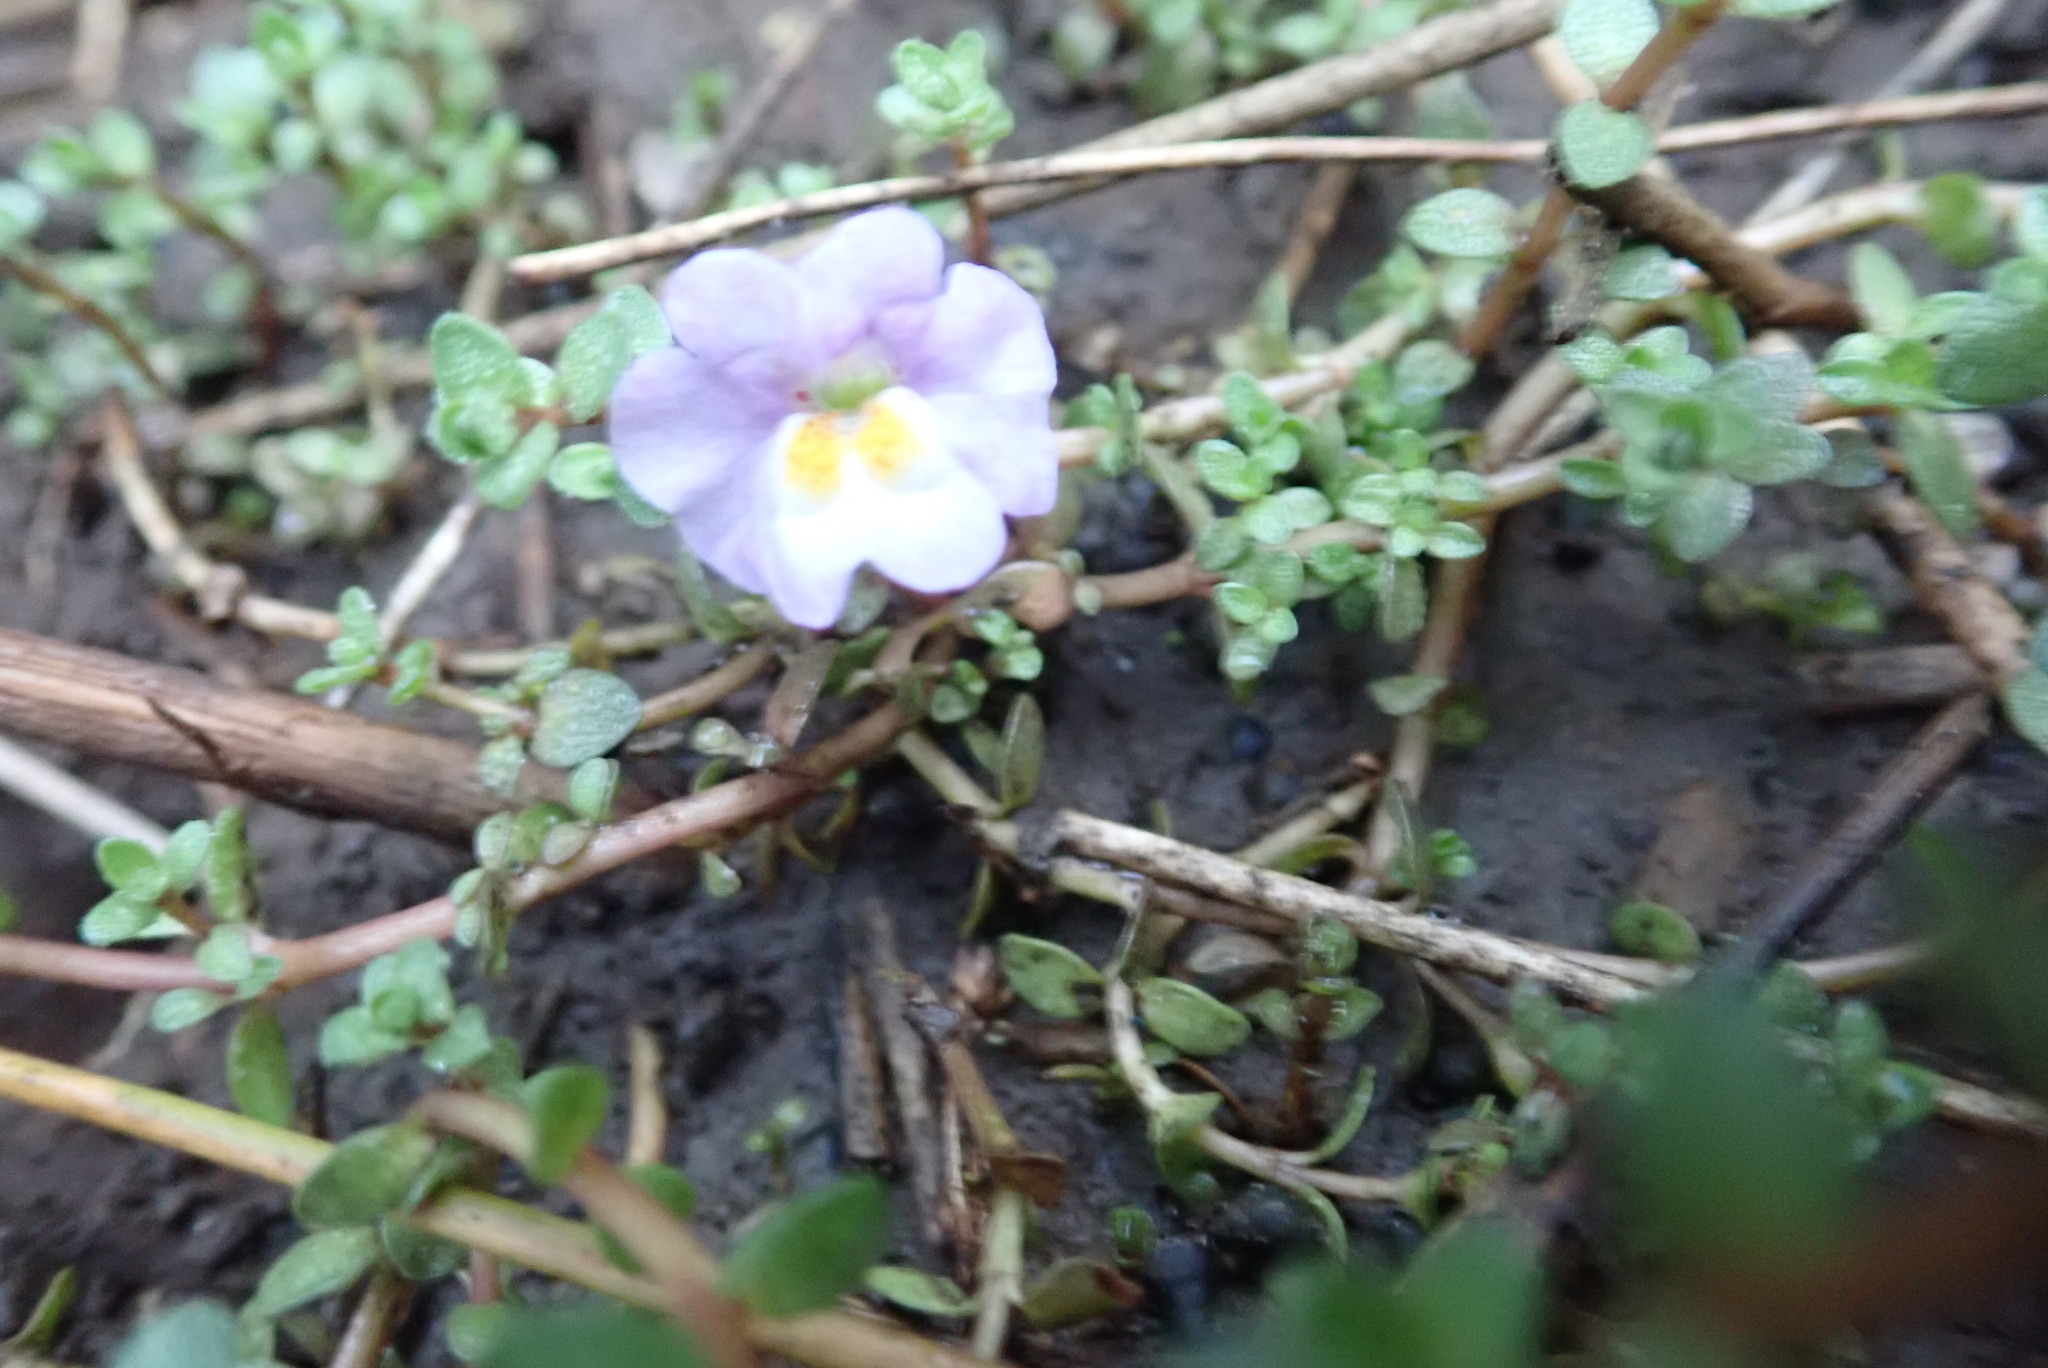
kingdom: Plantae
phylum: Tracheophyta
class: Magnoliopsida
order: Lamiales
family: Phrymaceae
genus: Thyridia
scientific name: Thyridia repens
